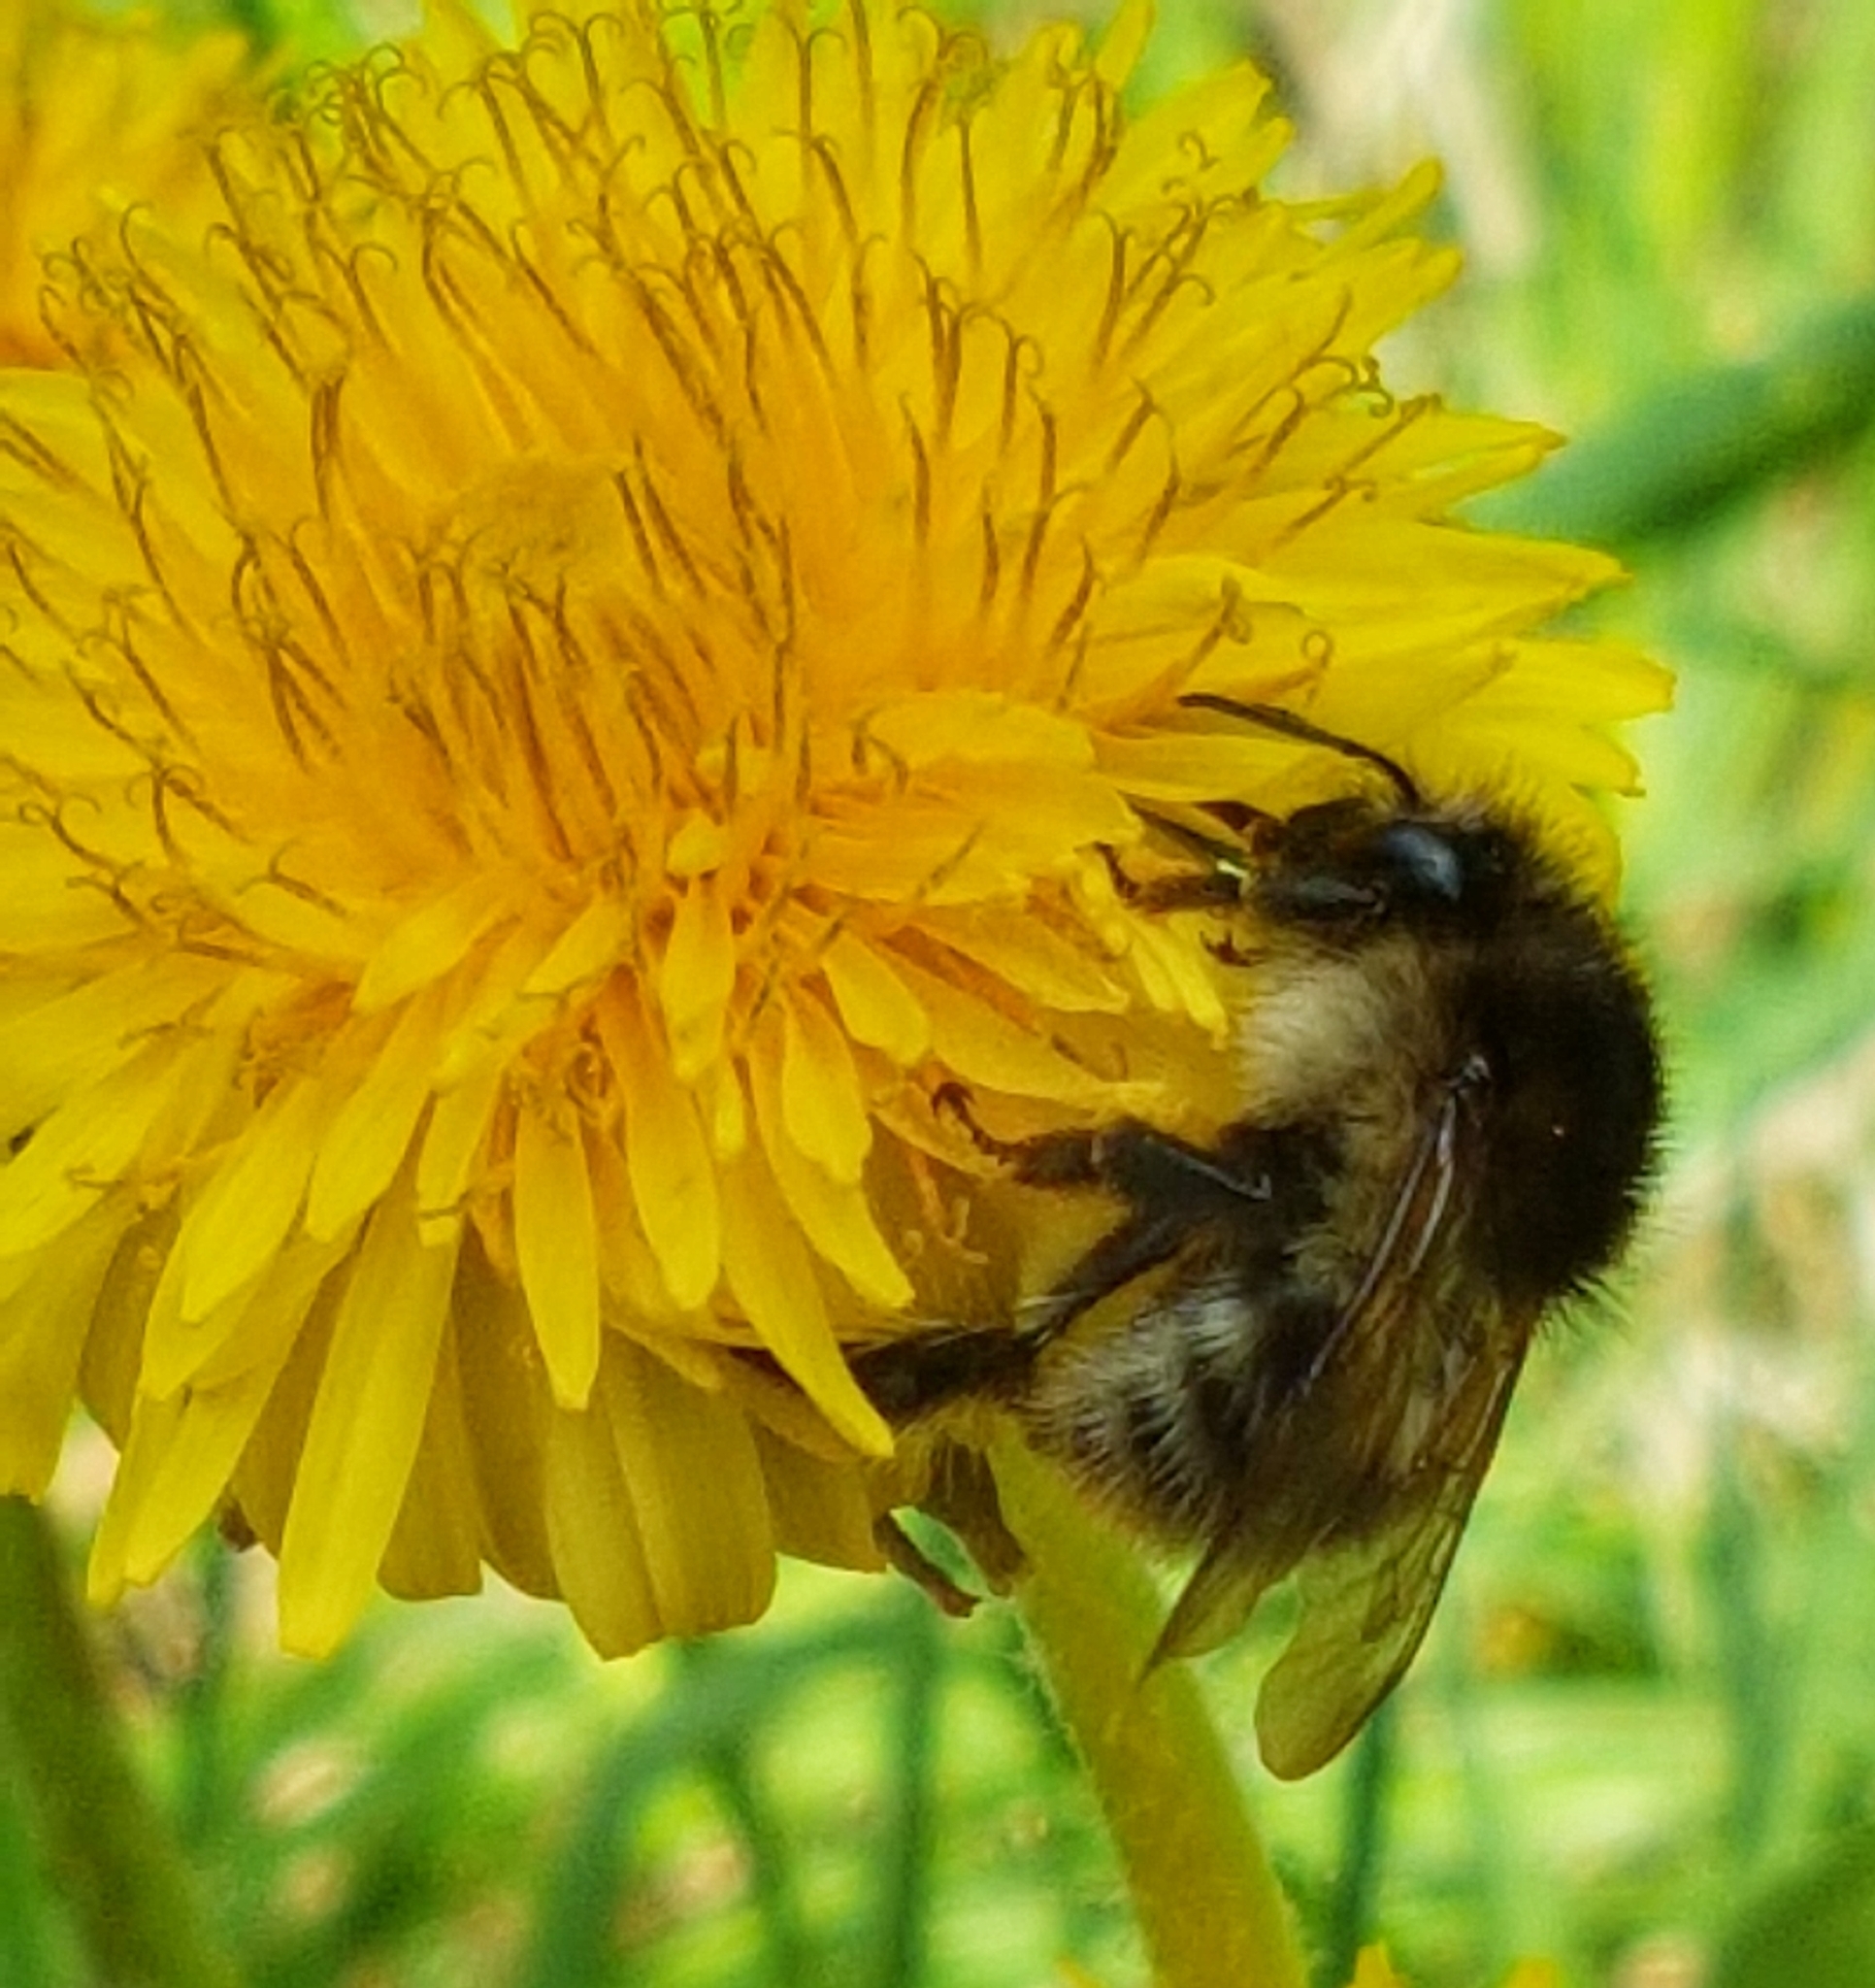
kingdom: Animalia
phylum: Arthropoda
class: Insecta
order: Hymenoptera
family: Apidae
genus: Bombus
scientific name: Bombus pascuorum
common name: Common carder bee
